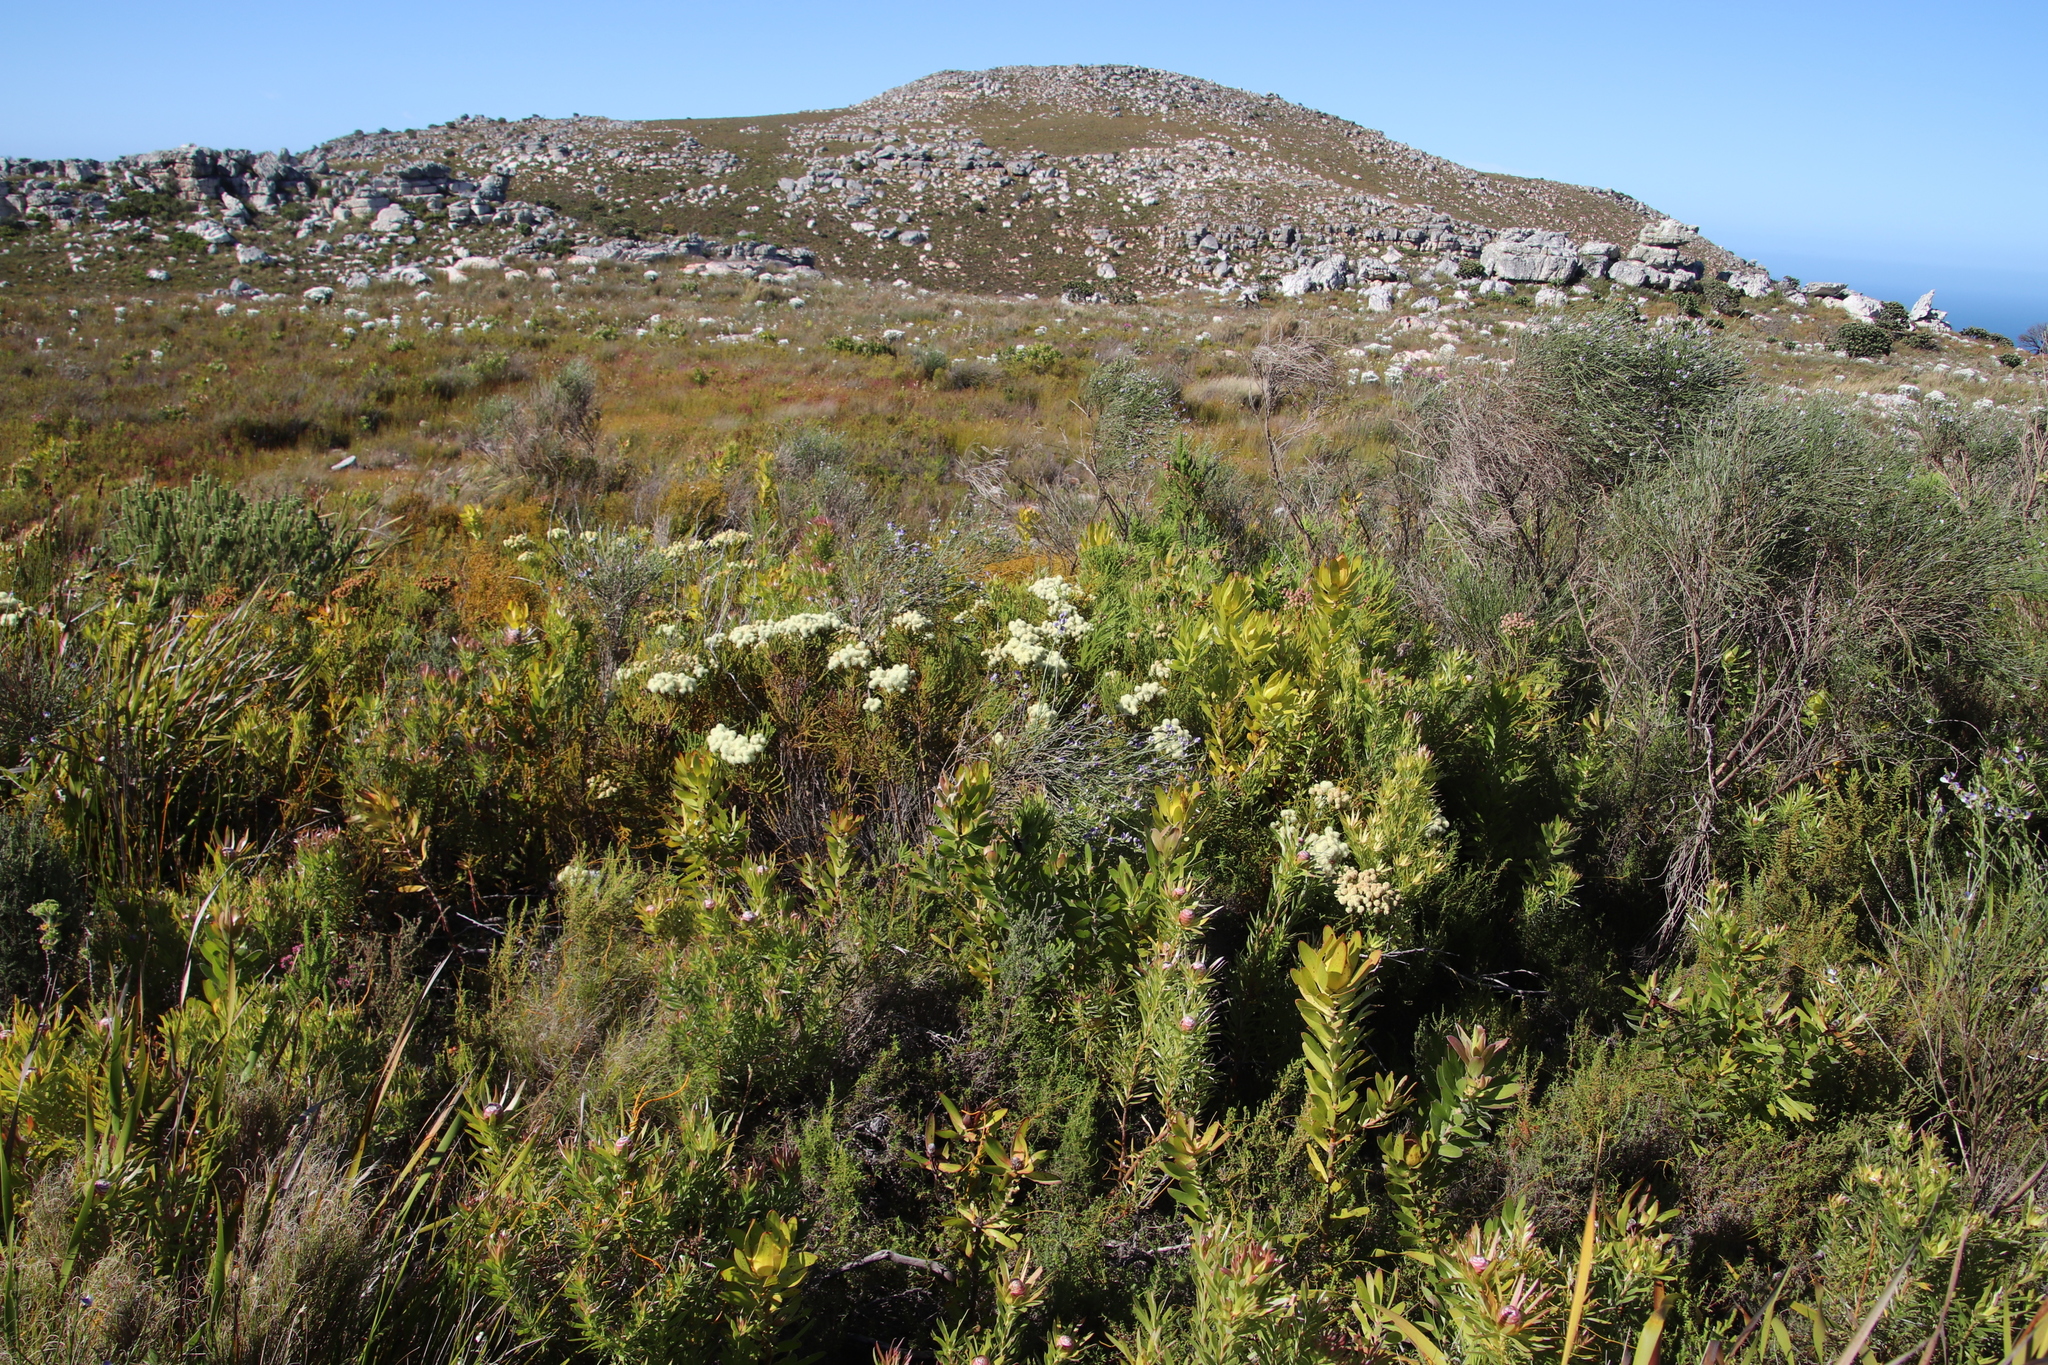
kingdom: Plantae
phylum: Tracheophyta
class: Magnoliopsida
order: Bruniales
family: Bruniaceae
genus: Berzelia
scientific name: Berzelia abrotanoides
